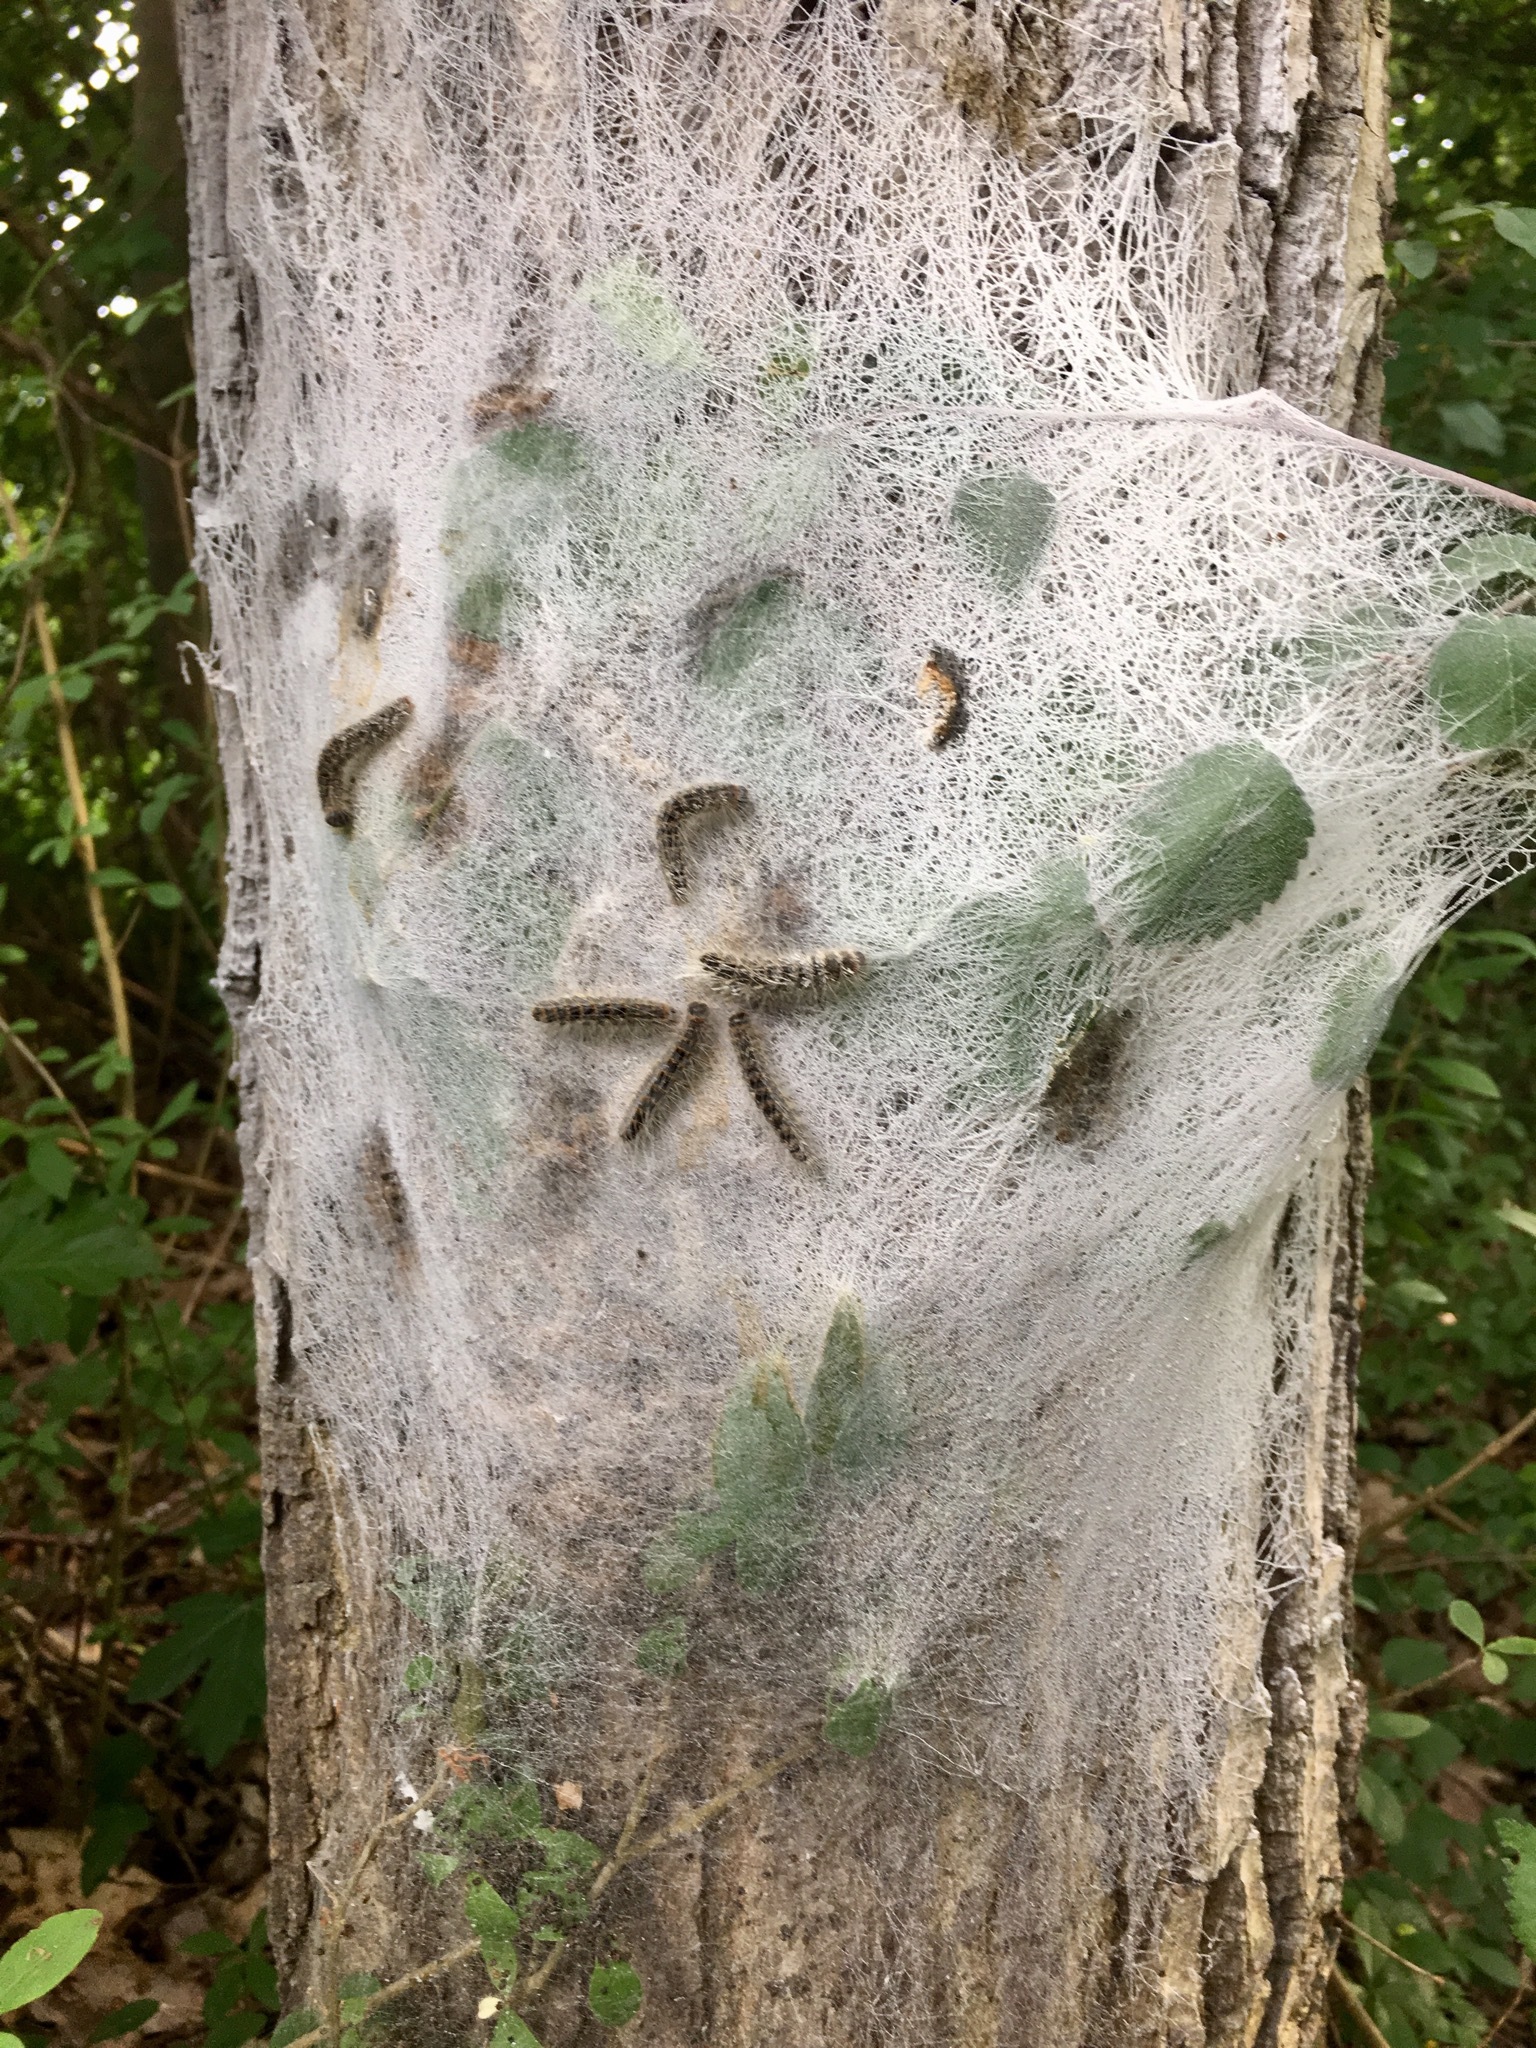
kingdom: Animalia
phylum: Arthropoda
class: Insecta
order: Lepidoptera
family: Notodontidae
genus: Thaumetopoea
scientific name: Thaumetopoea processionea
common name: Oak processionea
